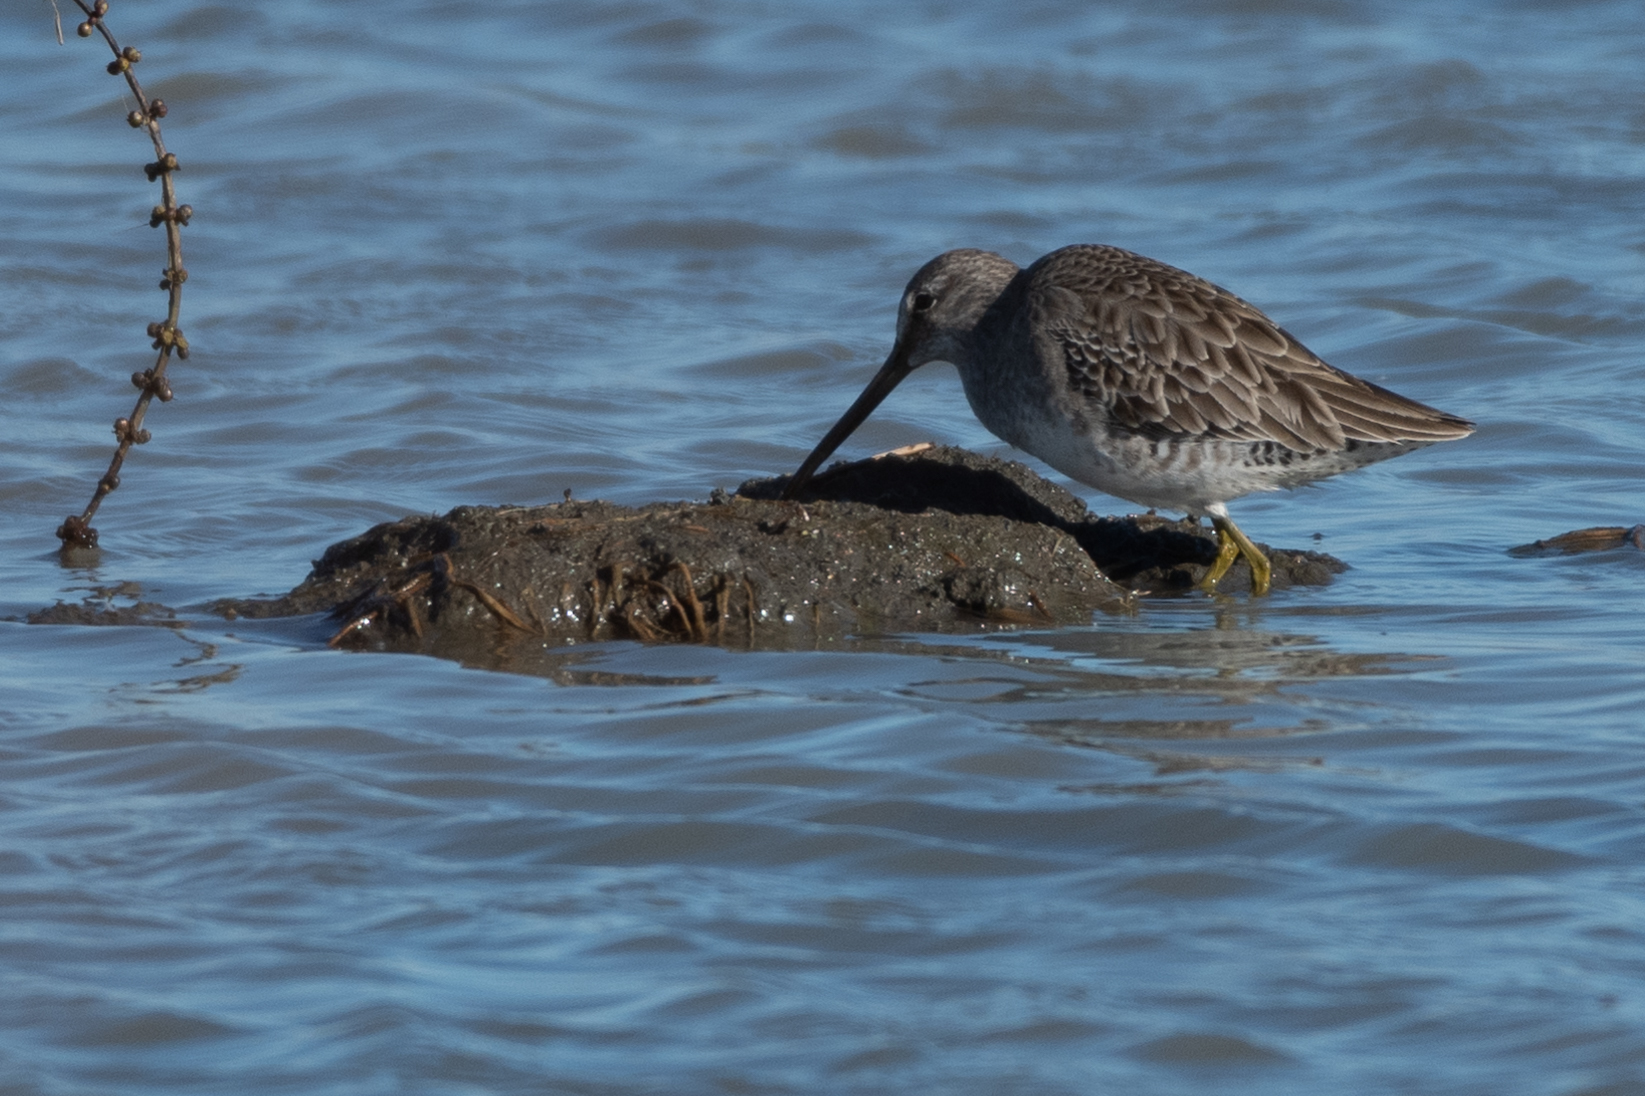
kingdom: Animalia
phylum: Chordata
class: Aves
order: Charadriiformes
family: Scolopacidae
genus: Limnodromus
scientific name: Limnodromus scolopaceus
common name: Long-billed dowitcher
